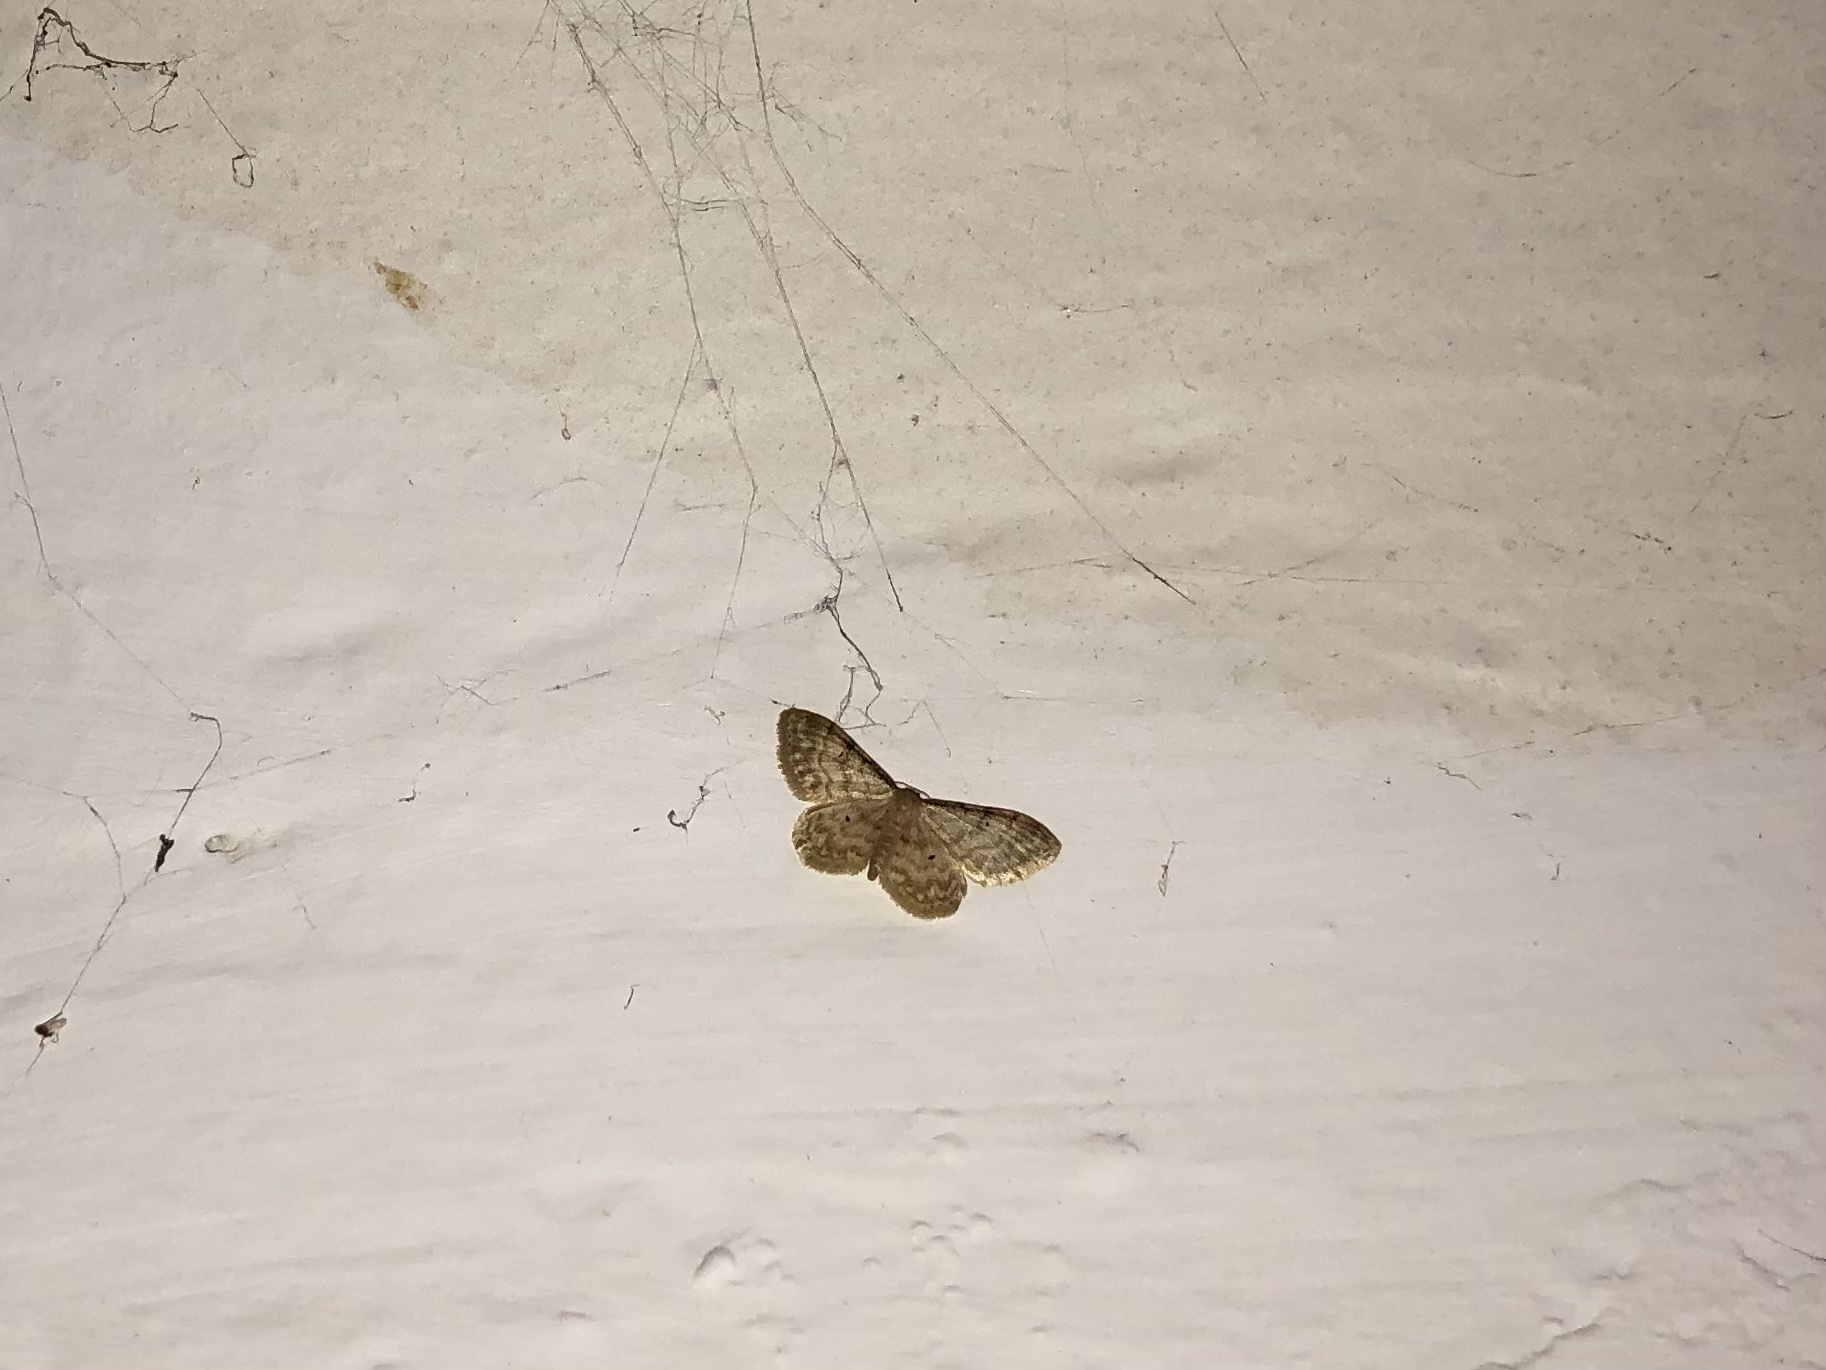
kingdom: Animalia
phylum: Arthropoda
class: Insecta
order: Lepidoptera
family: Geometridae
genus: Idaea
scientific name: Idaea fuscovenosa
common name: Dwarf cream wave
